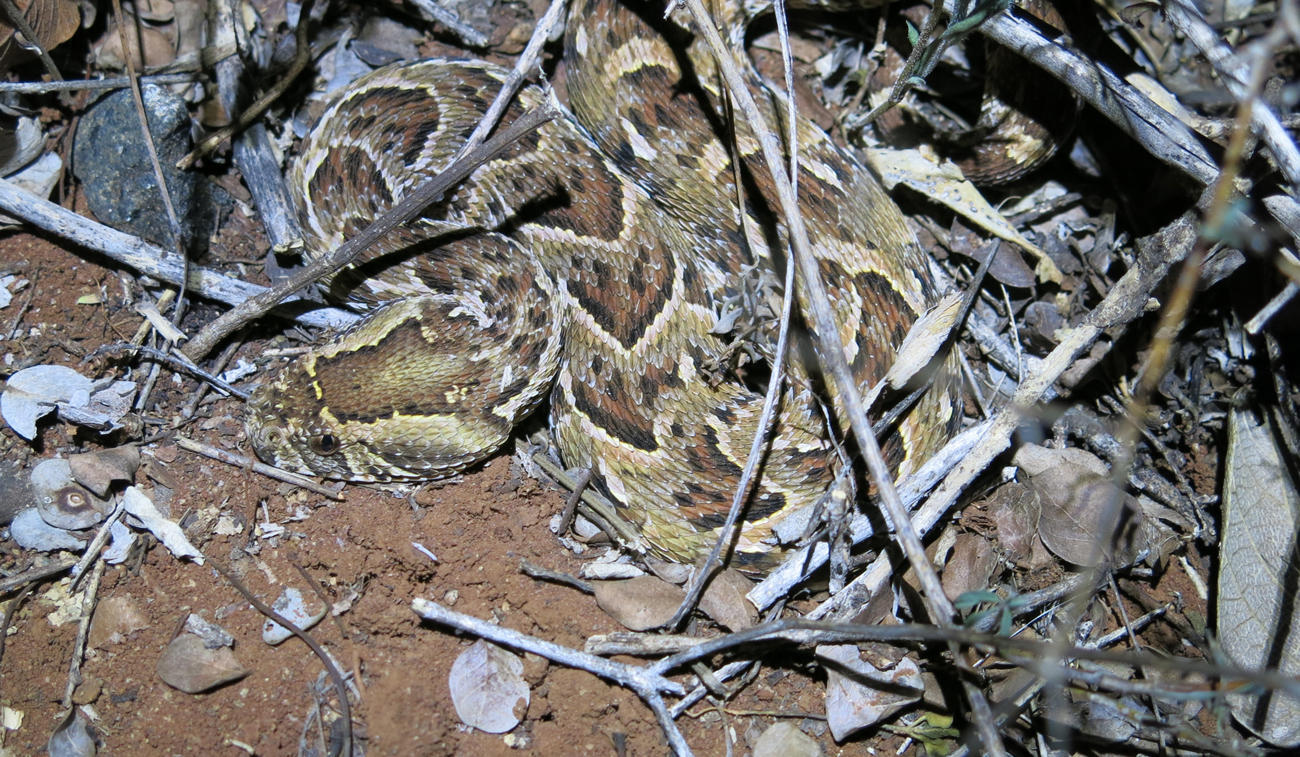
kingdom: Animalia
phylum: Chordata
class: Squamata
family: Viperidae
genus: Bitis
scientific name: Bitis arietans
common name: Puff adder
